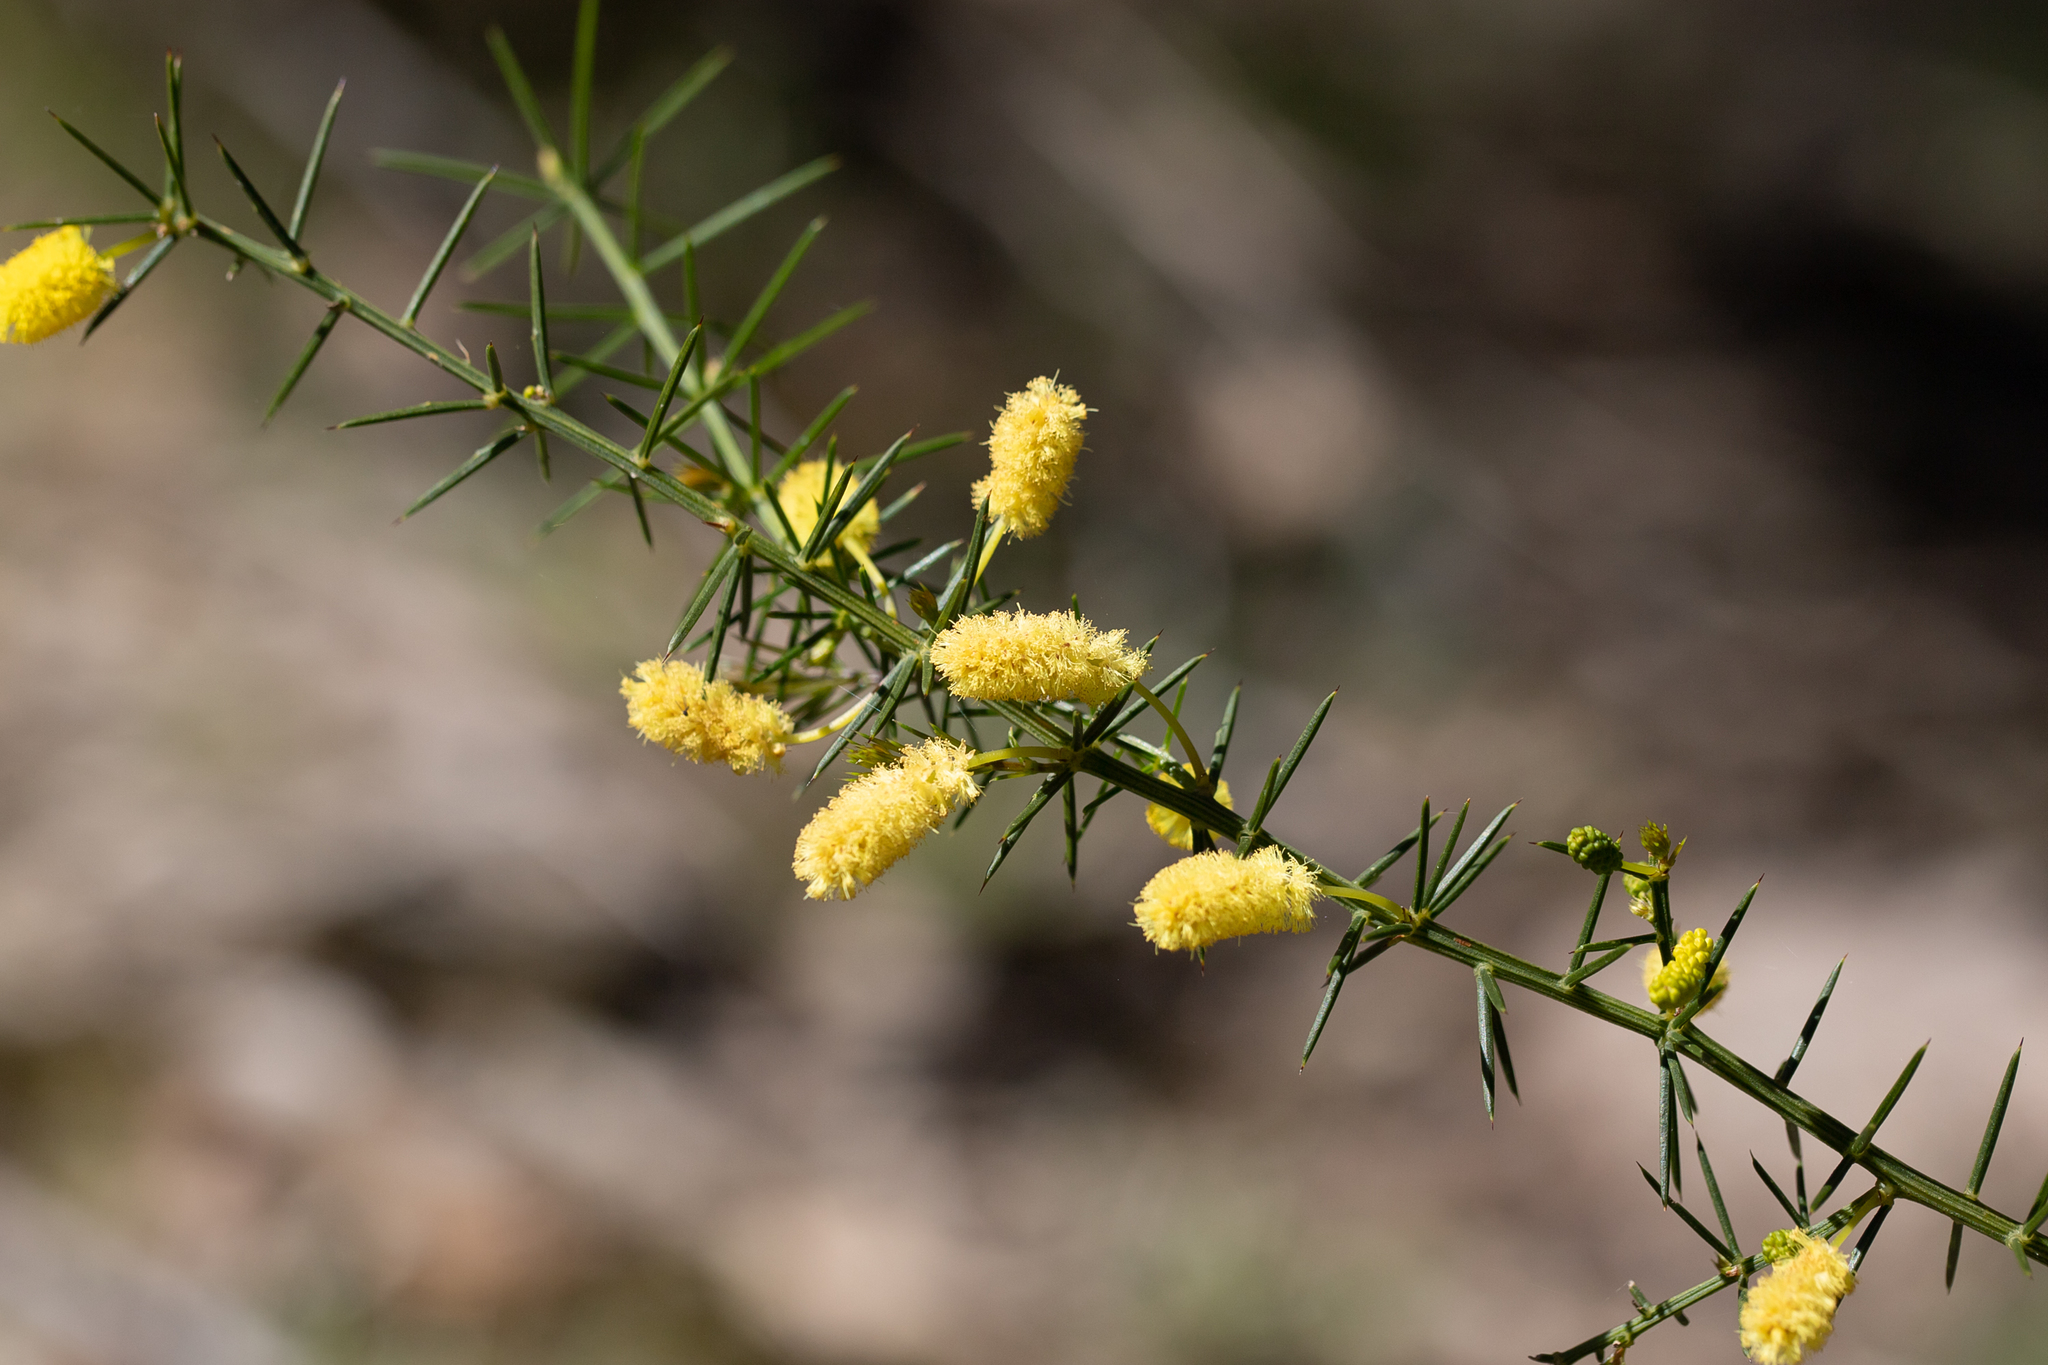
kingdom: Plantae
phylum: Tracheophyta
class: Magnoliopsida
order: Fabales
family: Fabaceae
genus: Acacia
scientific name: Acacia verticillata
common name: Prickly moses
